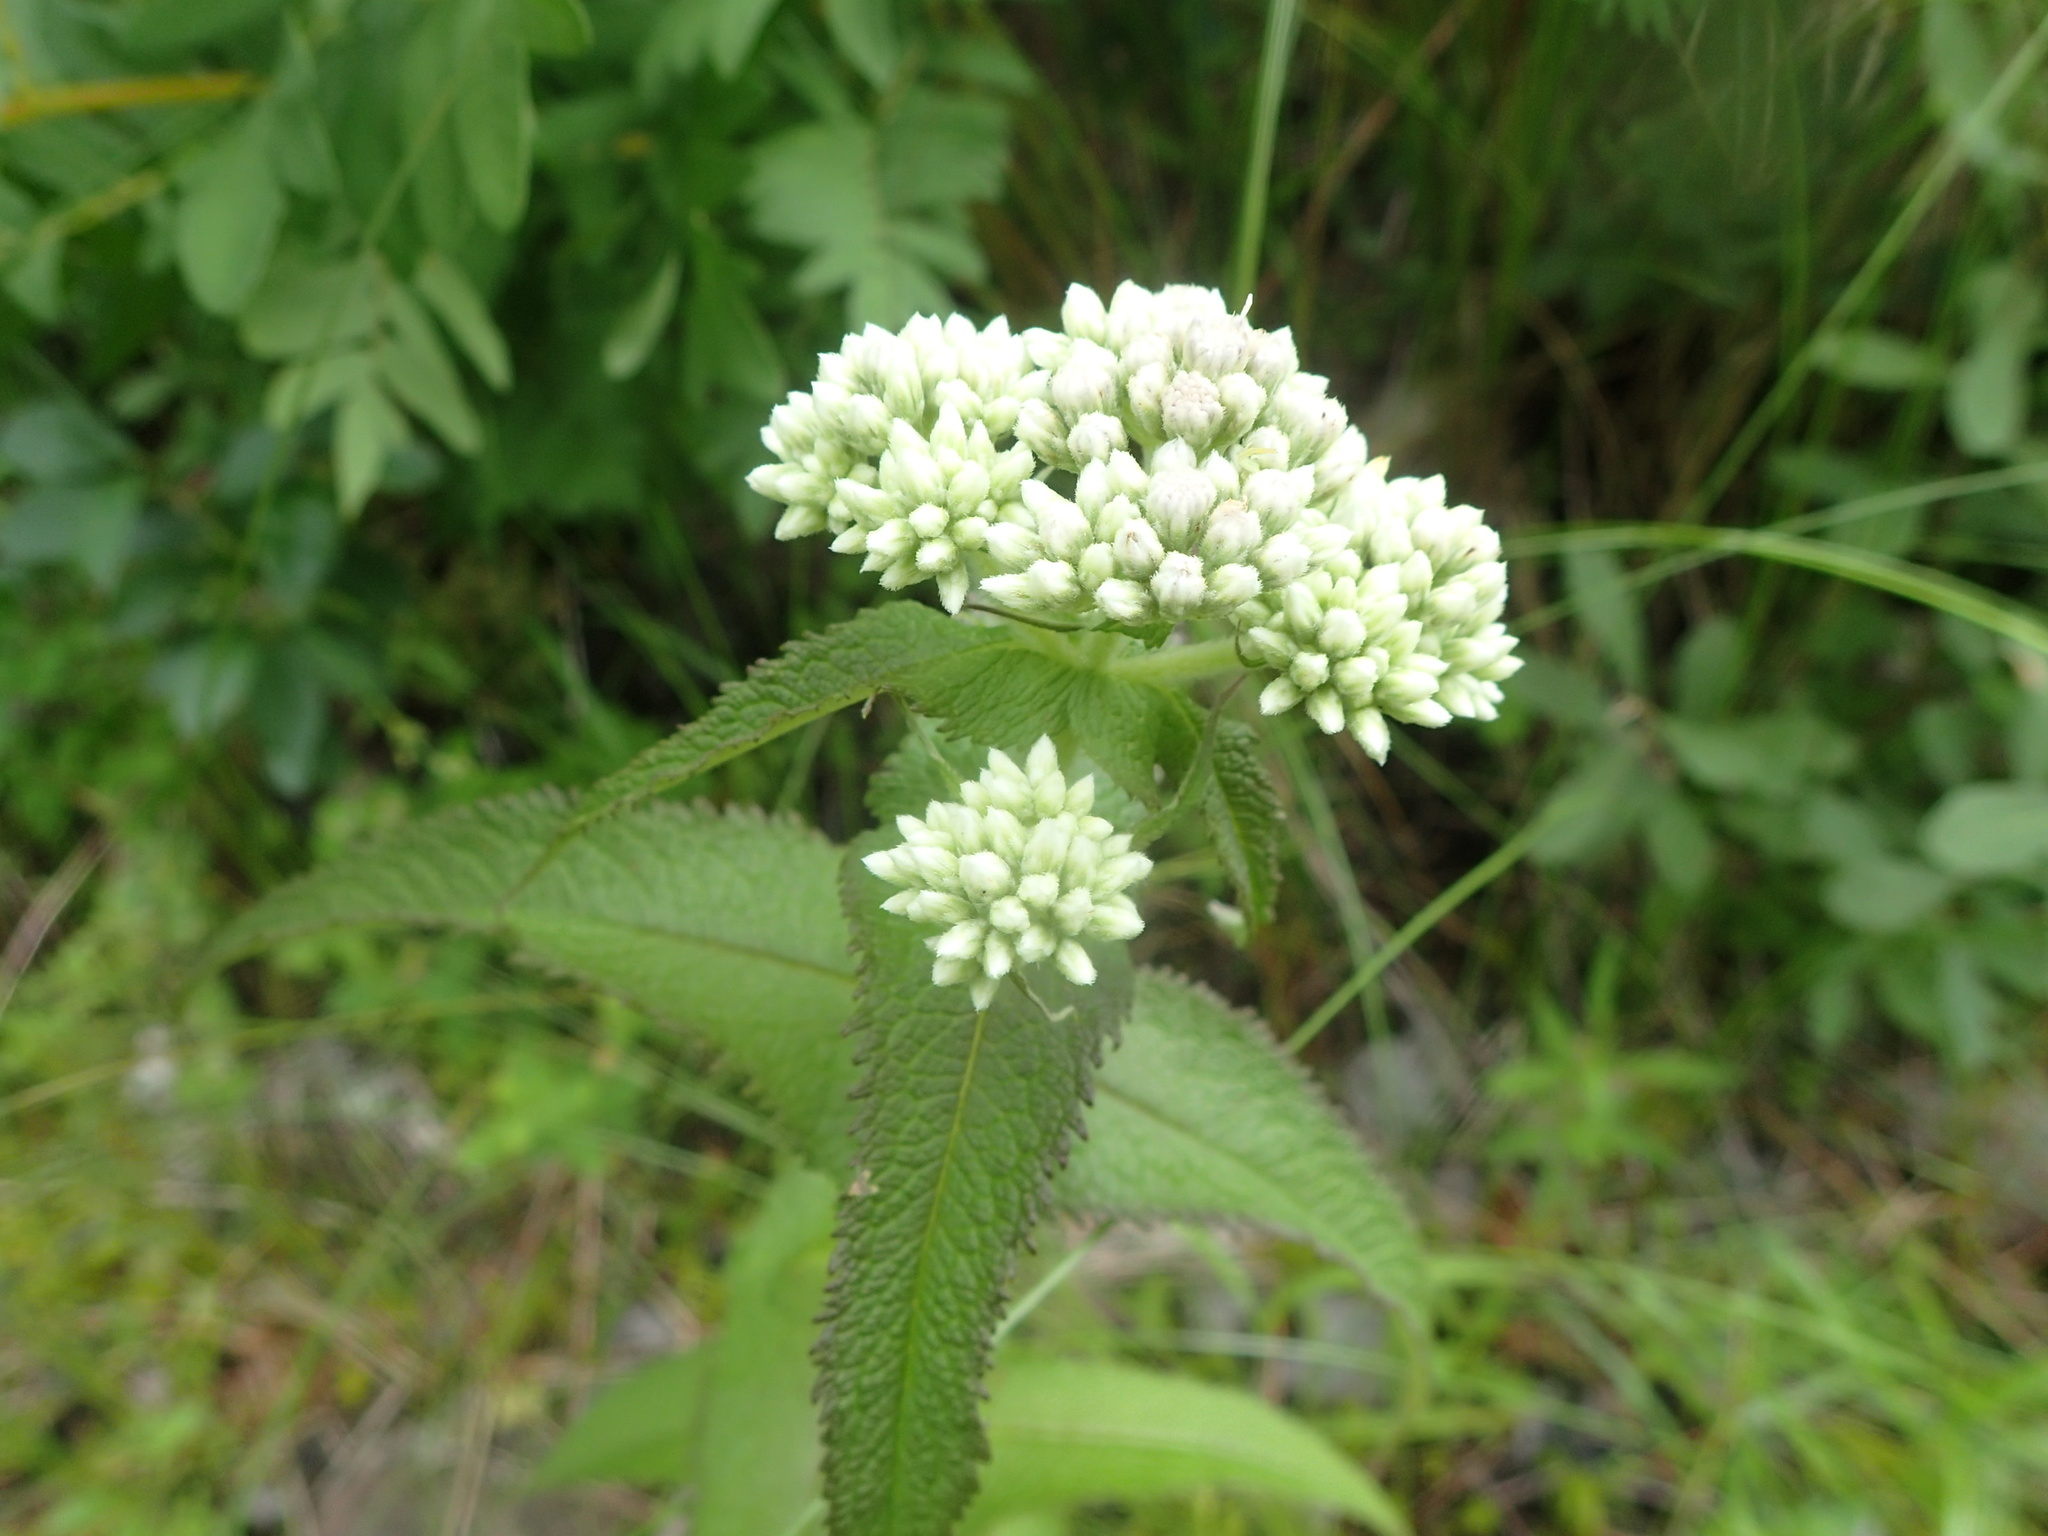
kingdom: Plantae
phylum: Tracheophyta
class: Magnoliopsida
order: Asterales
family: Asteraceae
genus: Eupatorium
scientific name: Eupatorium perfoliatum
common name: Boneset
